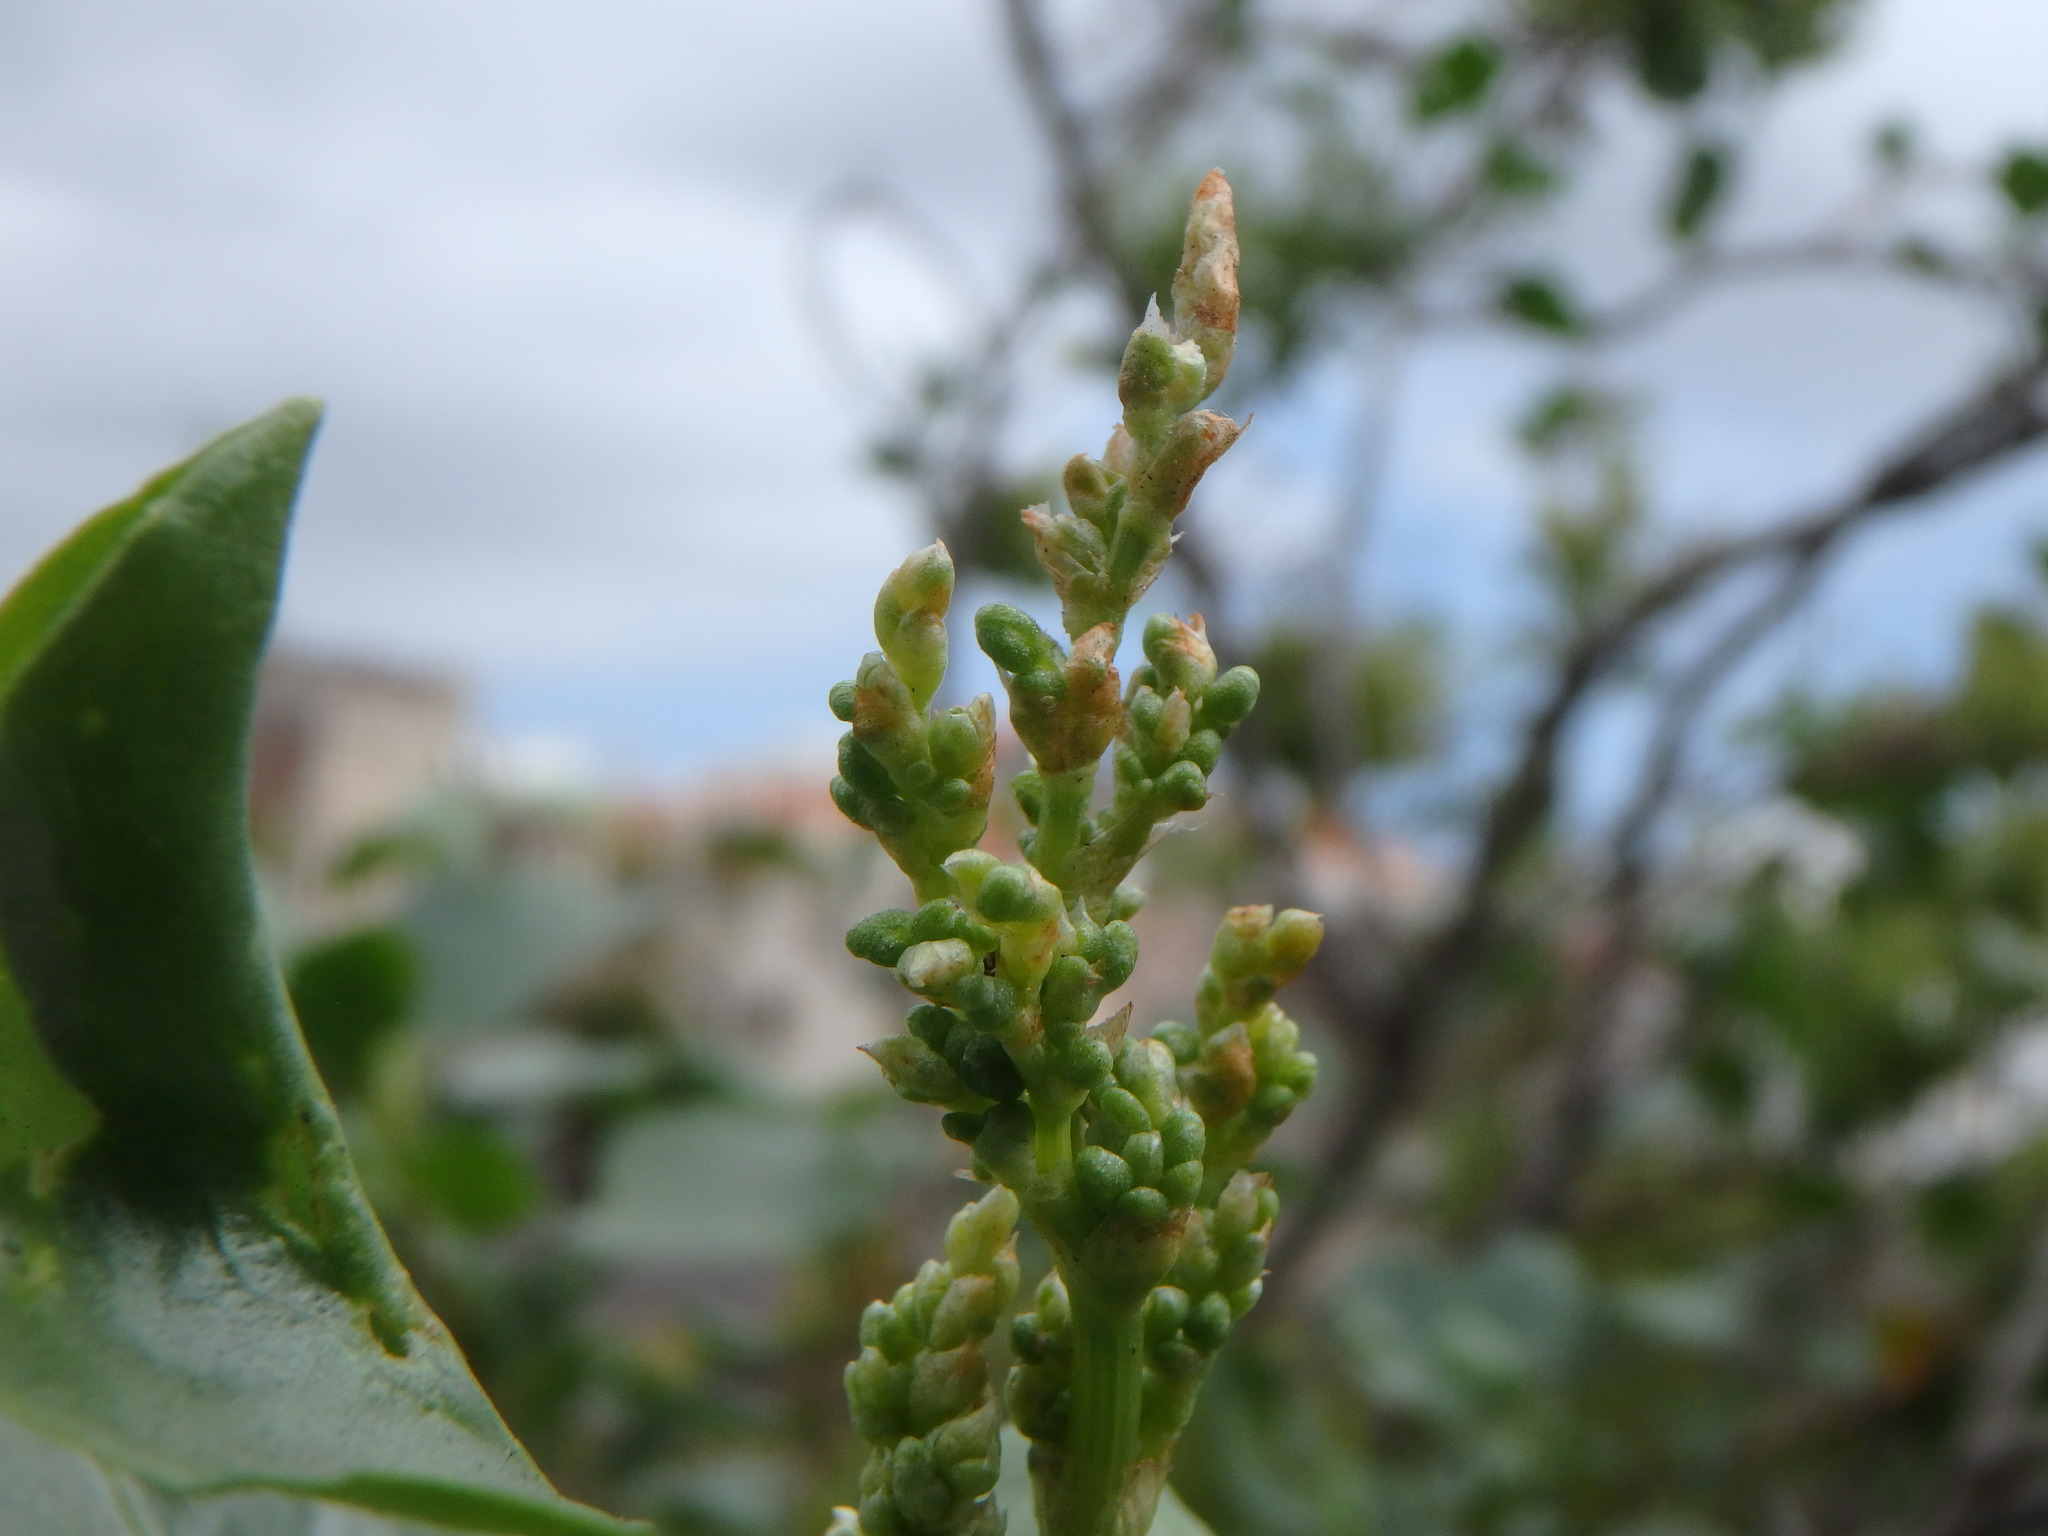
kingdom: Plantae
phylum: Tracheophyta
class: Magnoliopsida
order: Caryophyllales
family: Polygonaceae
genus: Rumex
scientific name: Rumex lunaria
